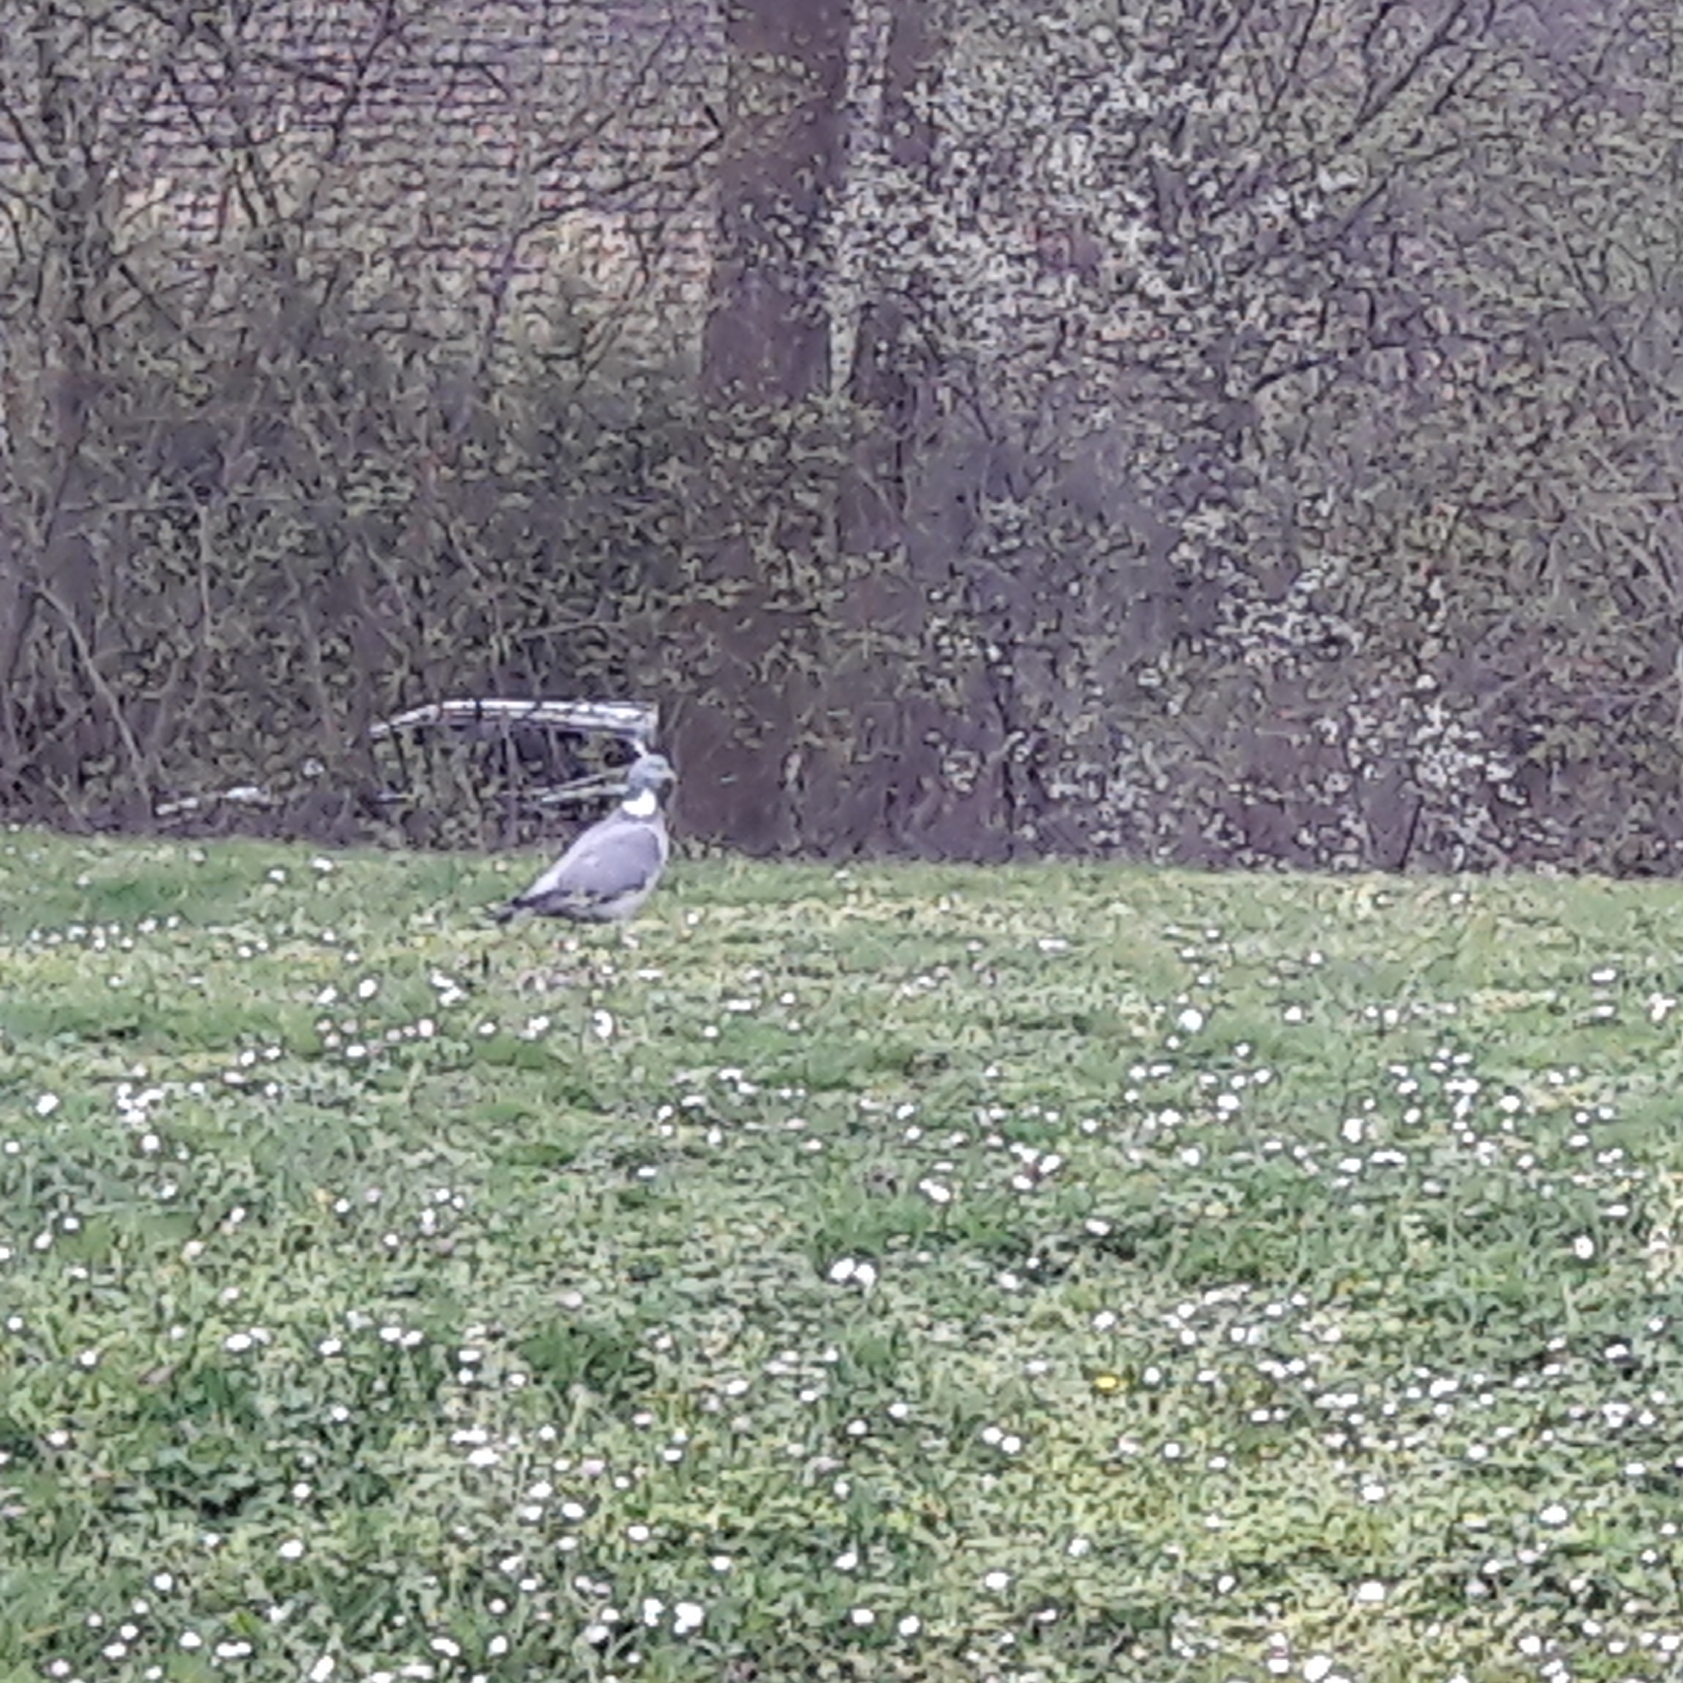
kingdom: Animalia
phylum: Chordata
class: Aves
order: Columbiformes
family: Columbidae
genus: Columba
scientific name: Columba palumbus
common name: Common wood pigeon
